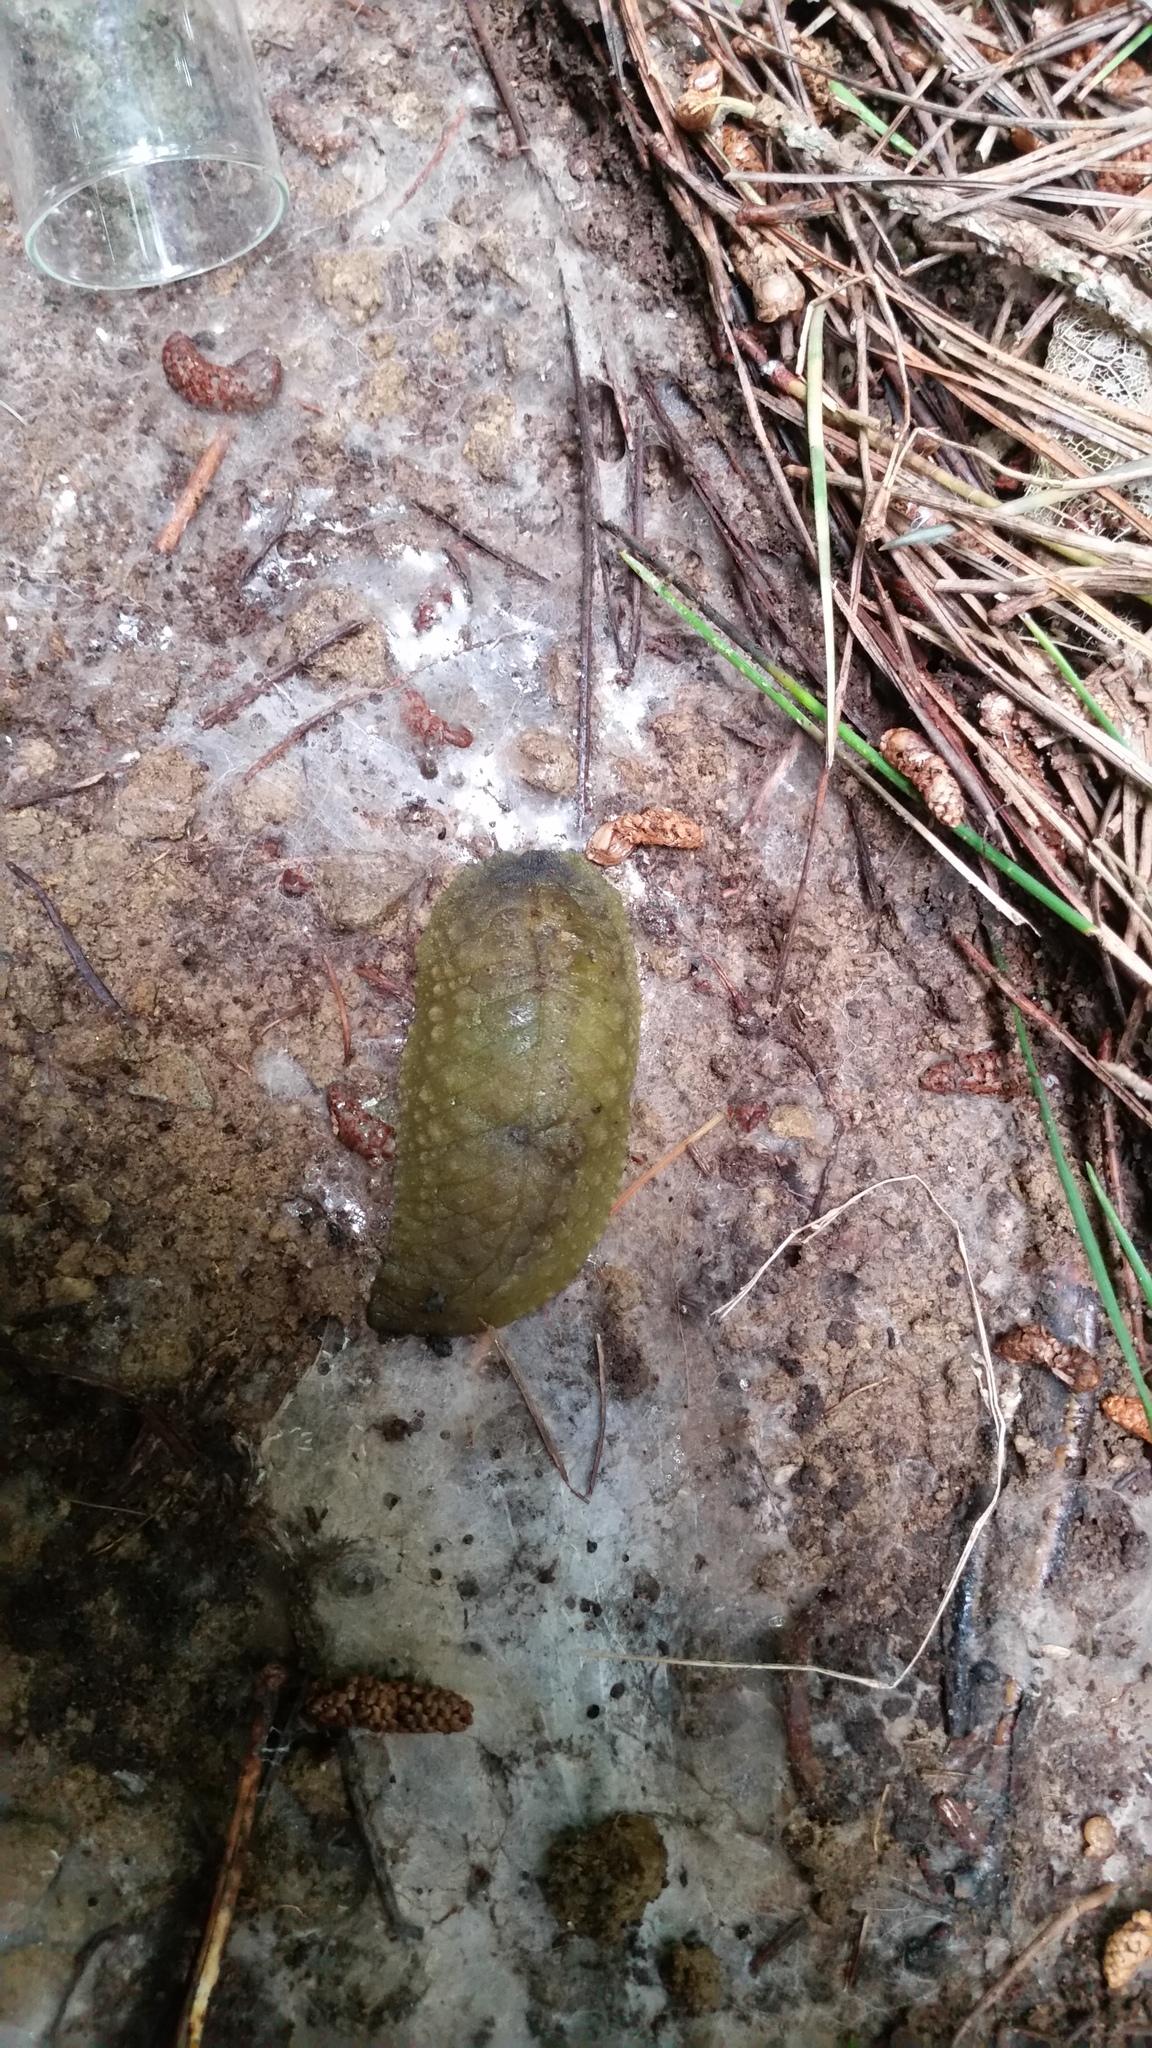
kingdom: Animalia
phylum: Mollusca
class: Gastropoda
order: Stylommatophora
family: Athoracophoridae
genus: Athoracophorus
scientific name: Athoracophorus papillatus
